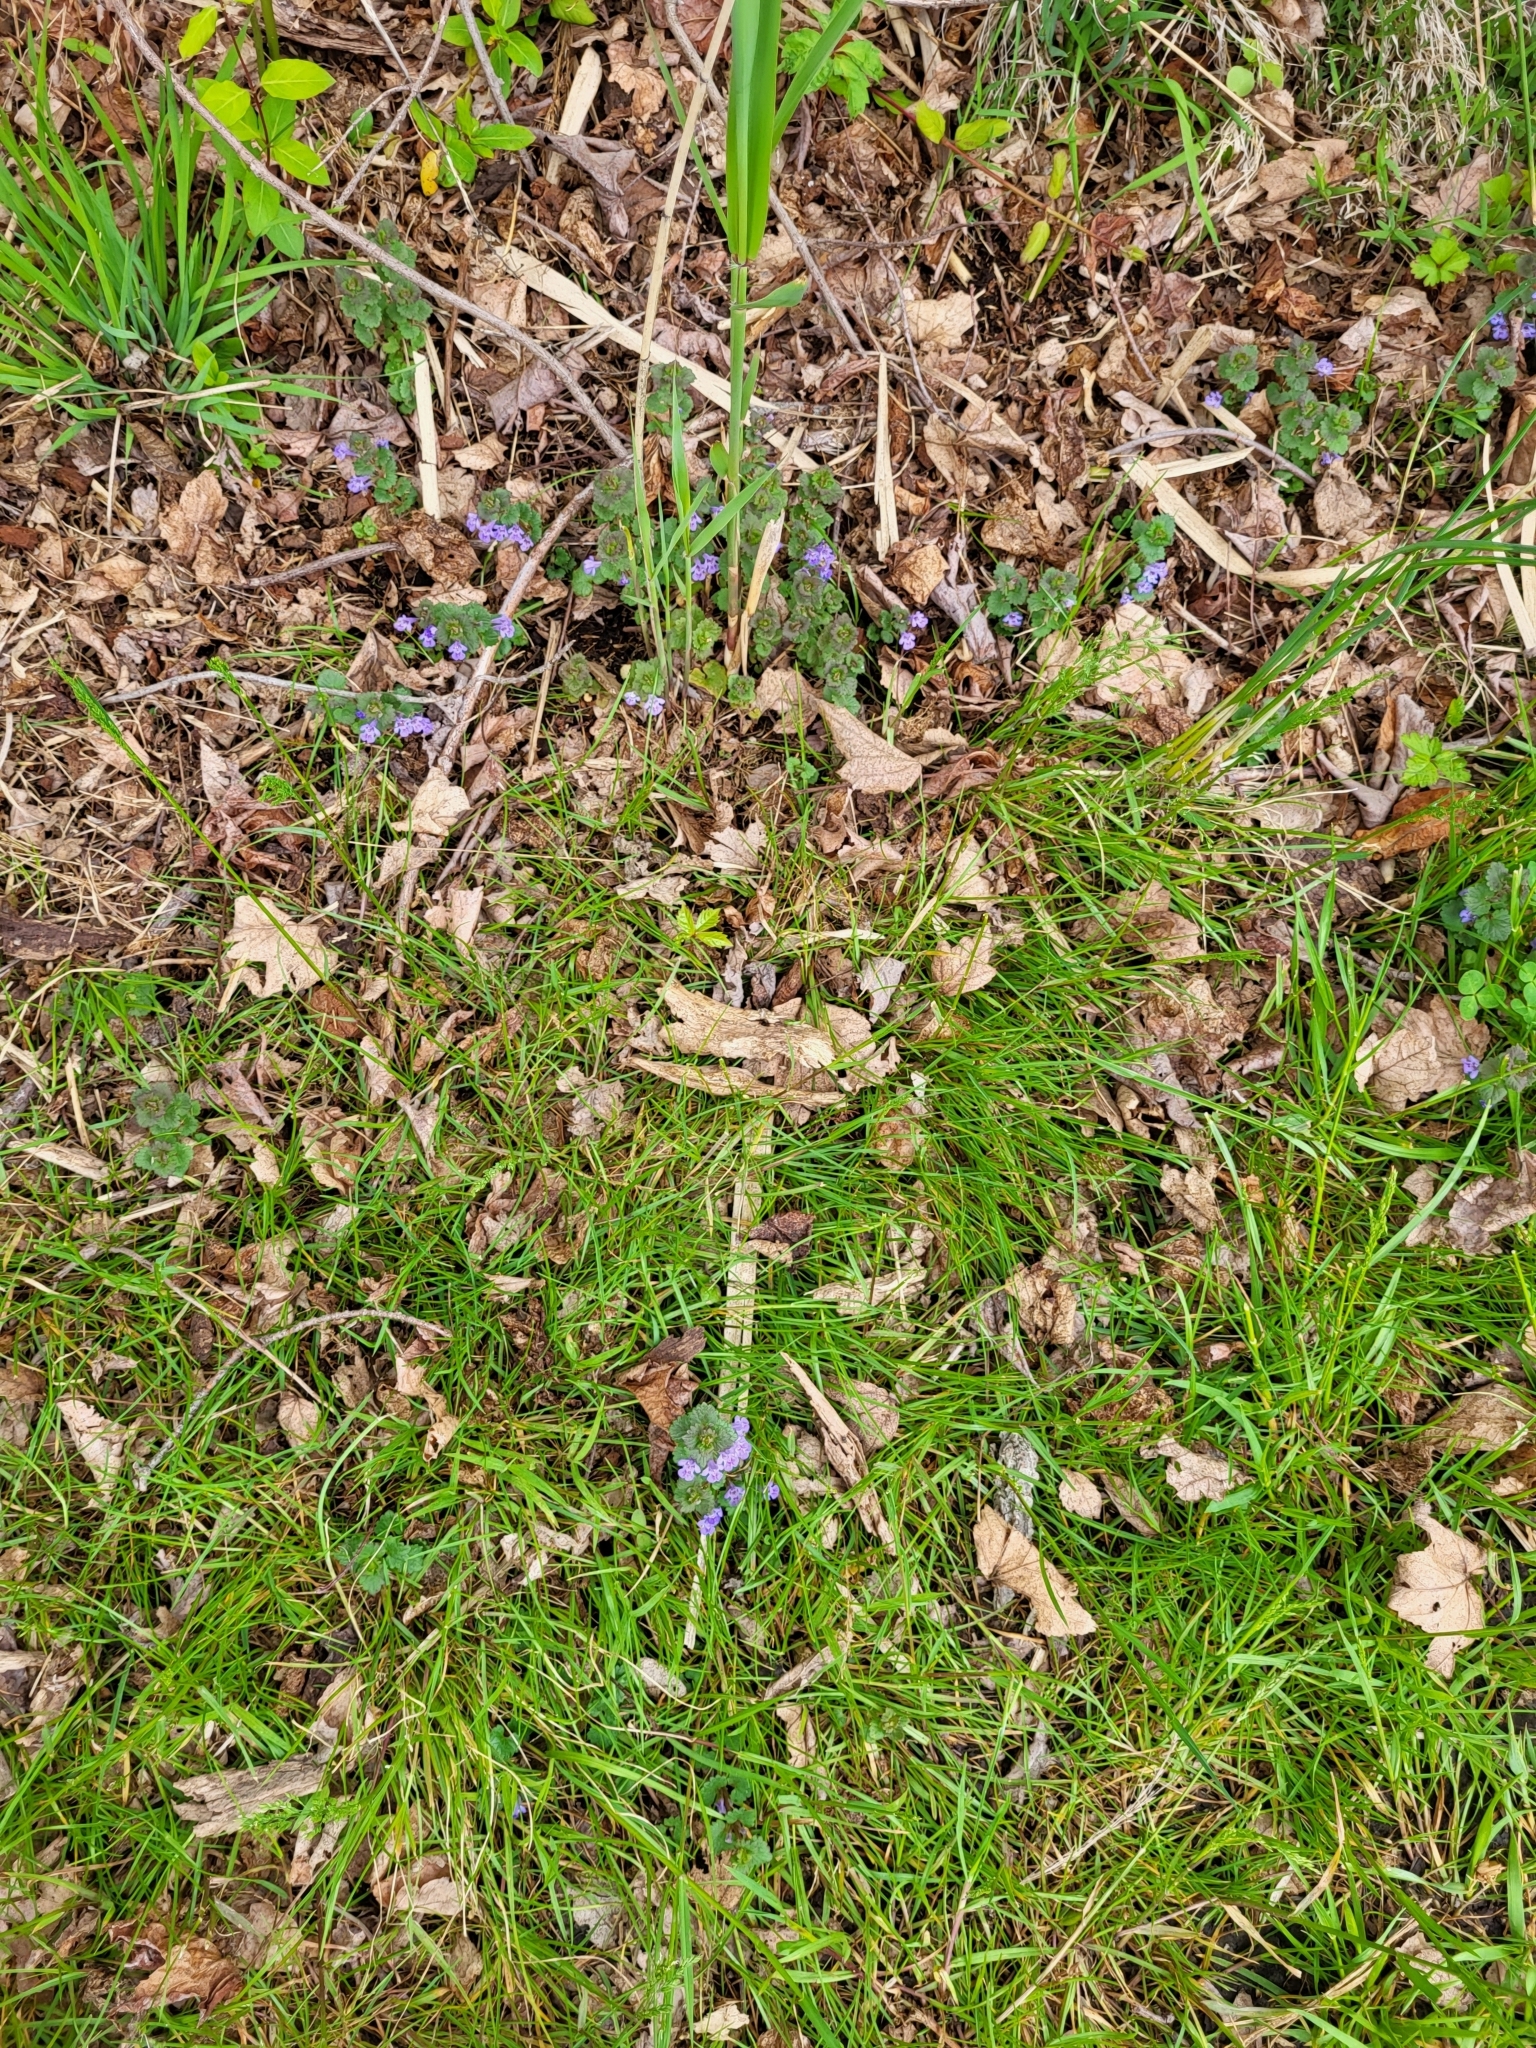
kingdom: Plantae
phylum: Tracheophyta
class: Magnoliopsida
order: Lamiales
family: Lamiaceae
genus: Glechoma
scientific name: Glechoma hederacea
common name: Ground ivy
